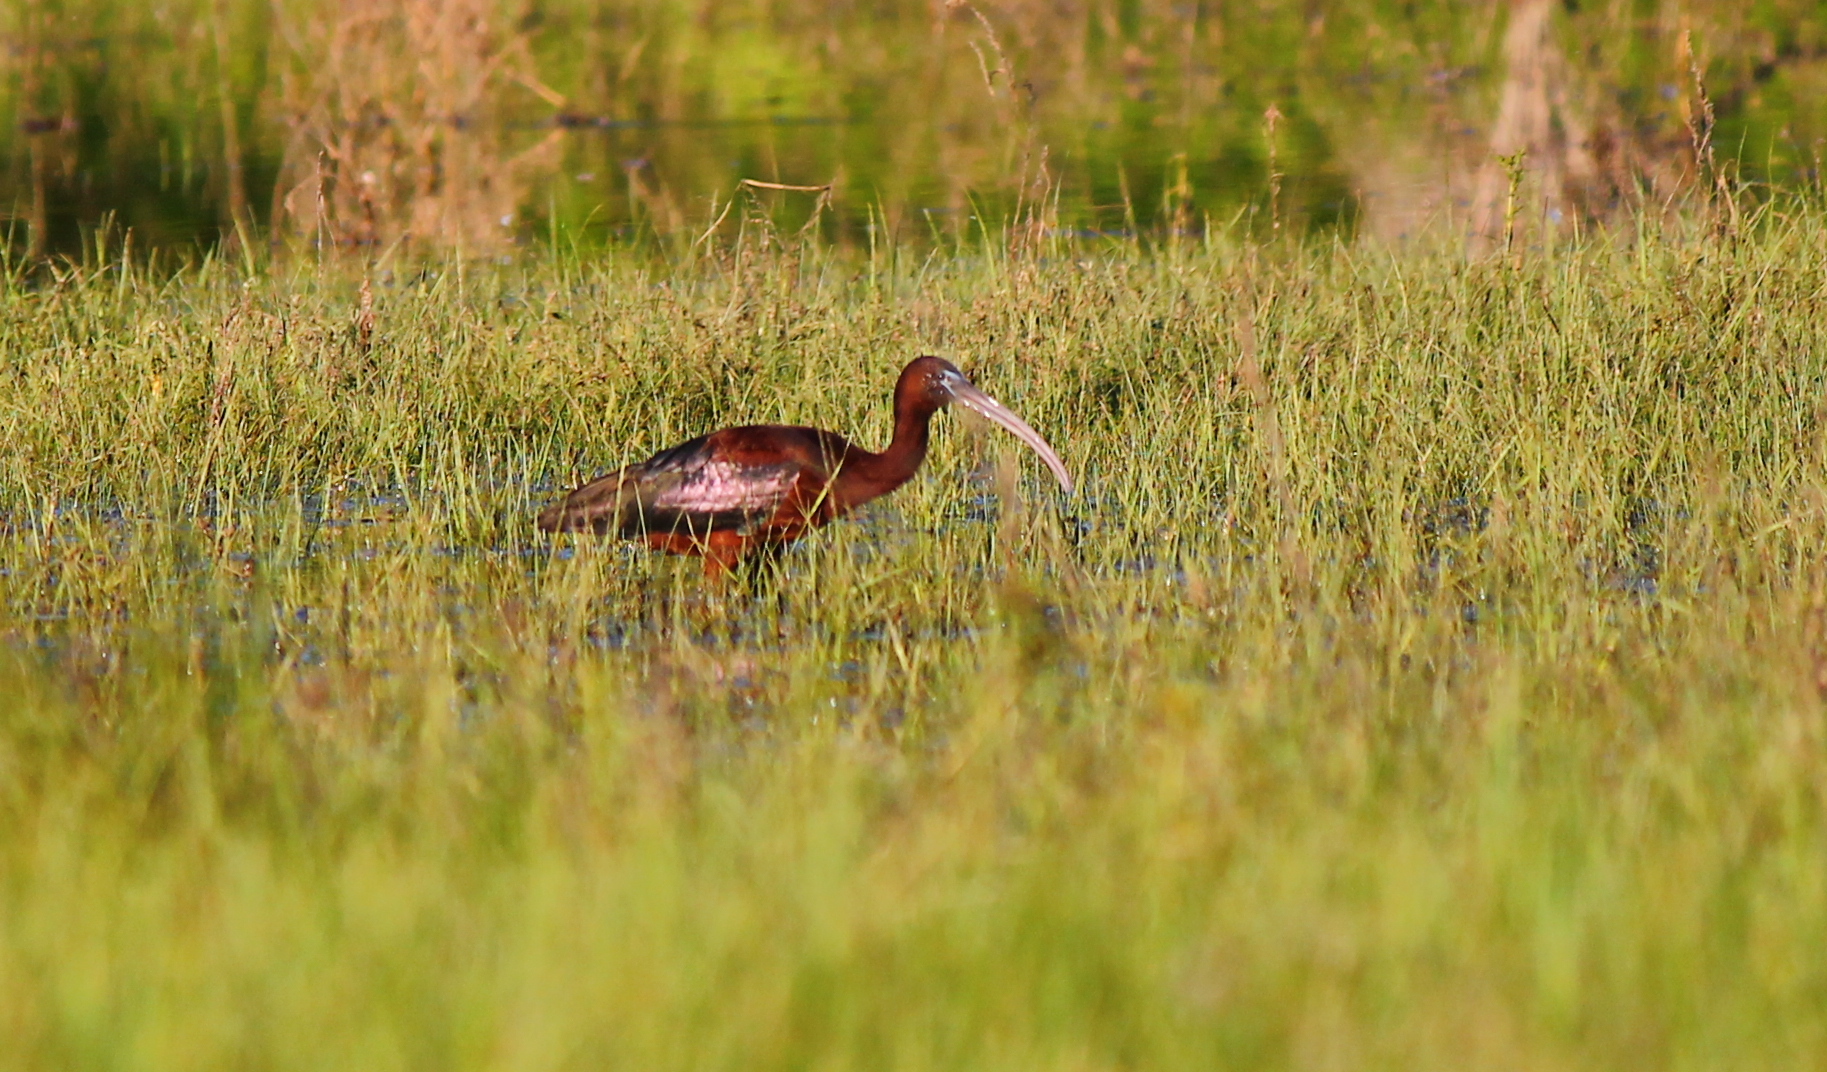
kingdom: Animalia
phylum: Chordata
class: Aves
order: Pelecaniformes
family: Threskiornithidae
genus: Plegadis
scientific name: Plegadis falcinellus
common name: Glossy ibis
